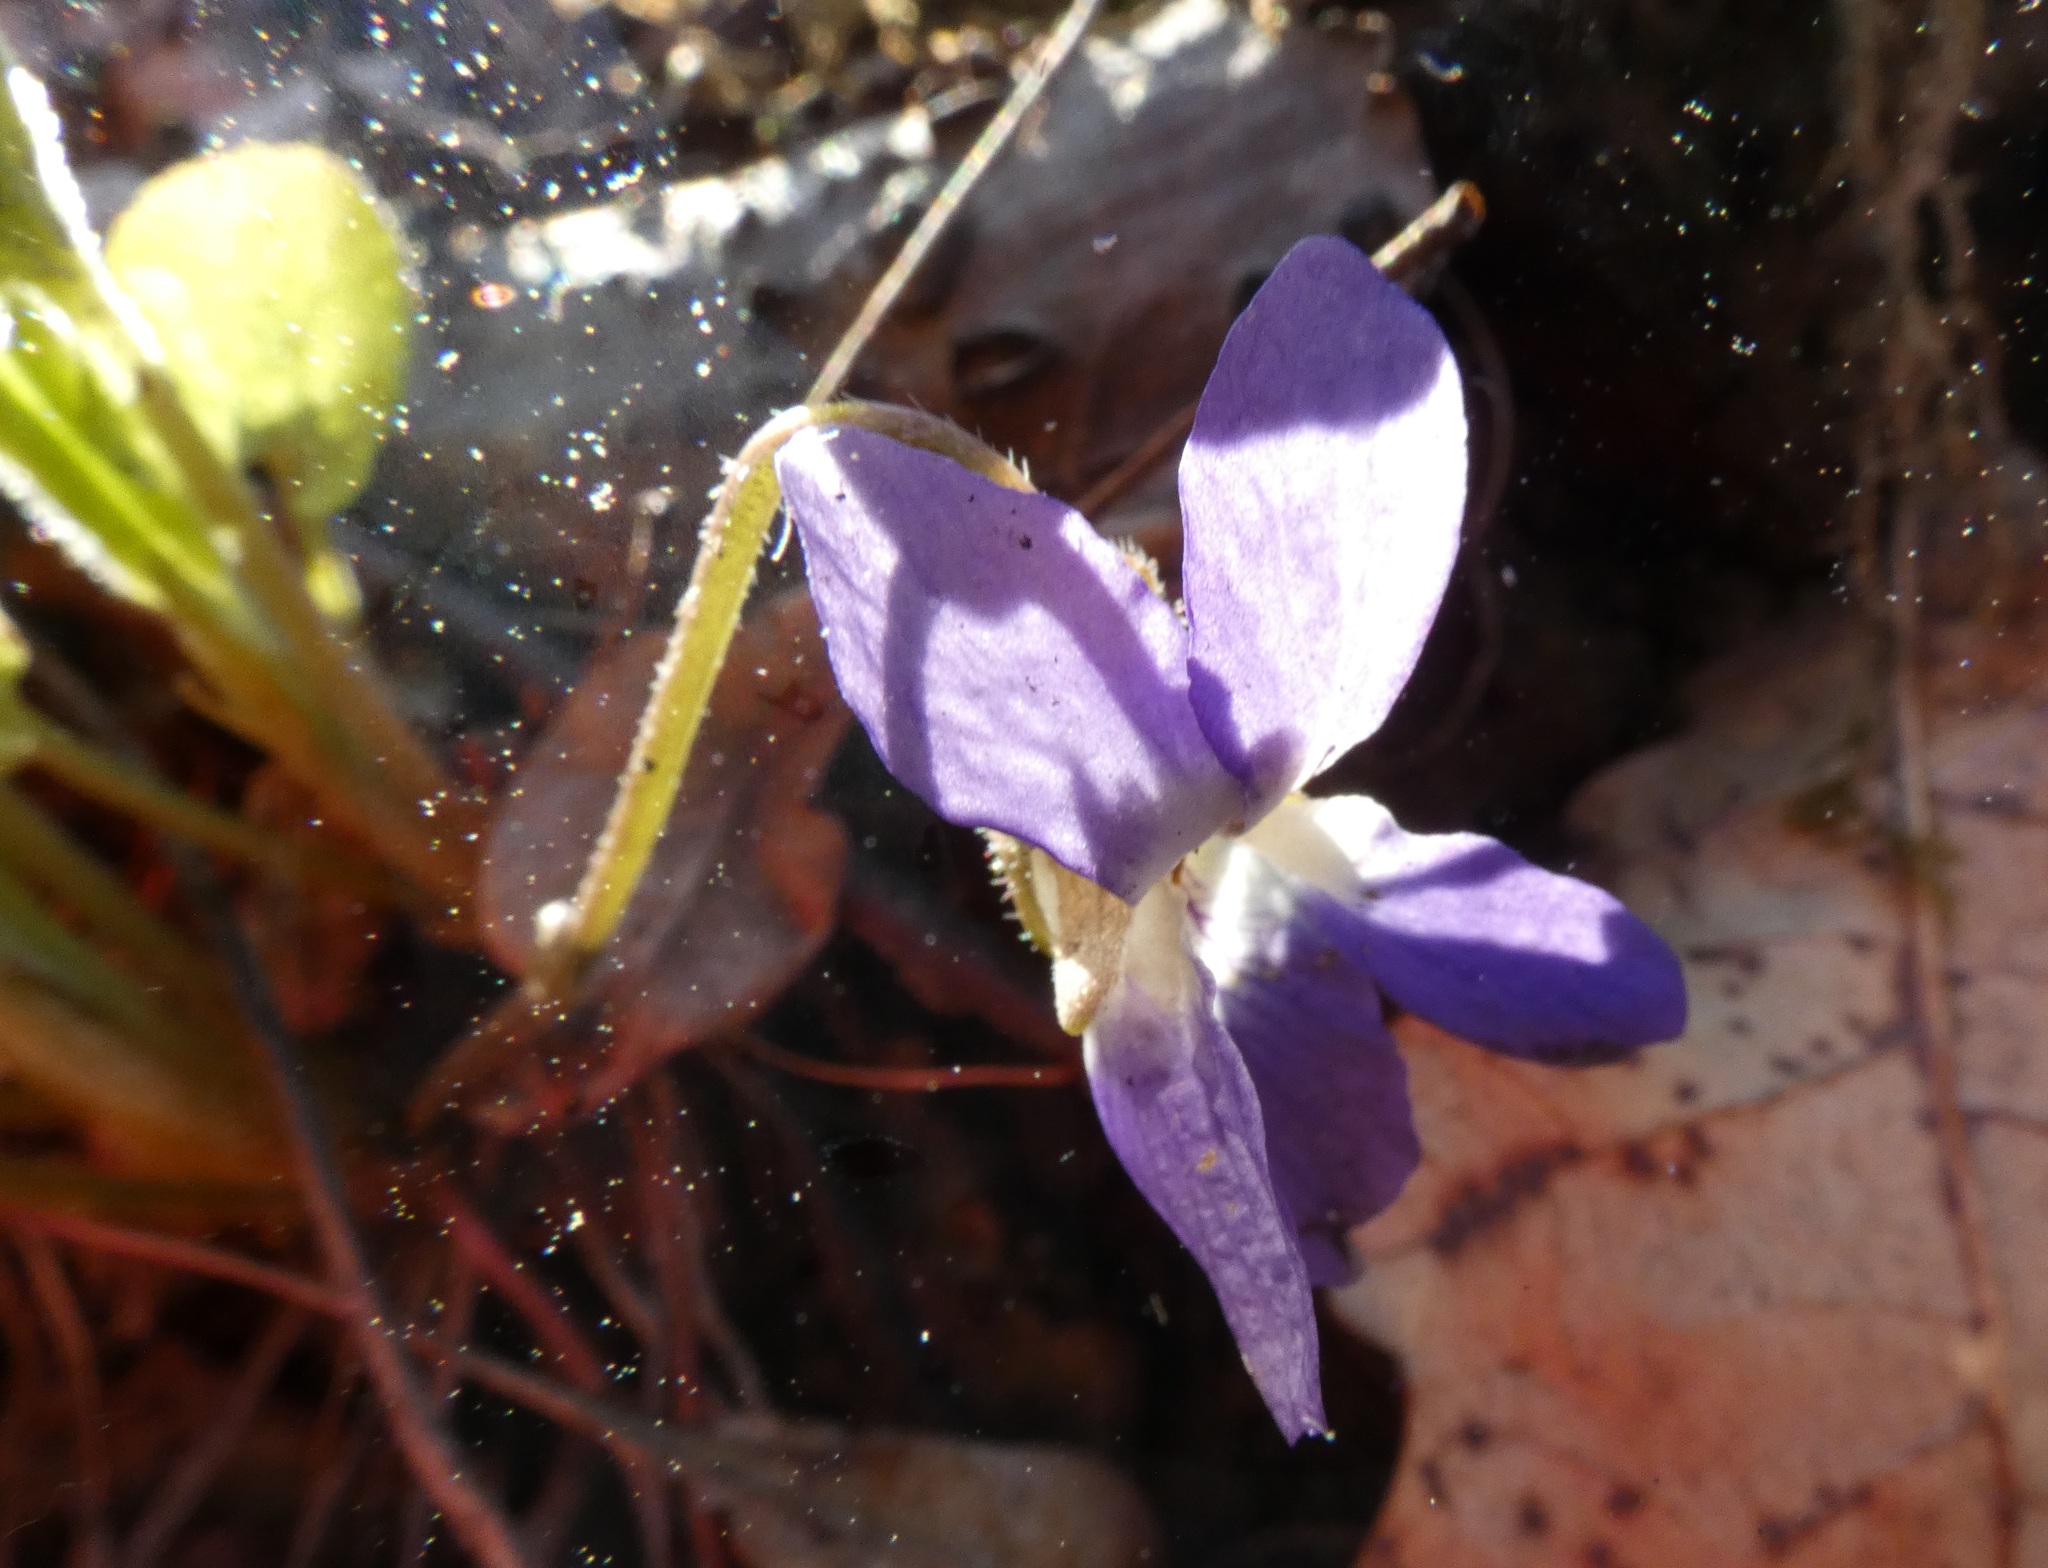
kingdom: Plantae
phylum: Tracheophyta
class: Magnoliopsida
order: Malpighiales
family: Violaceae
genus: Viola
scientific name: Viola collina
